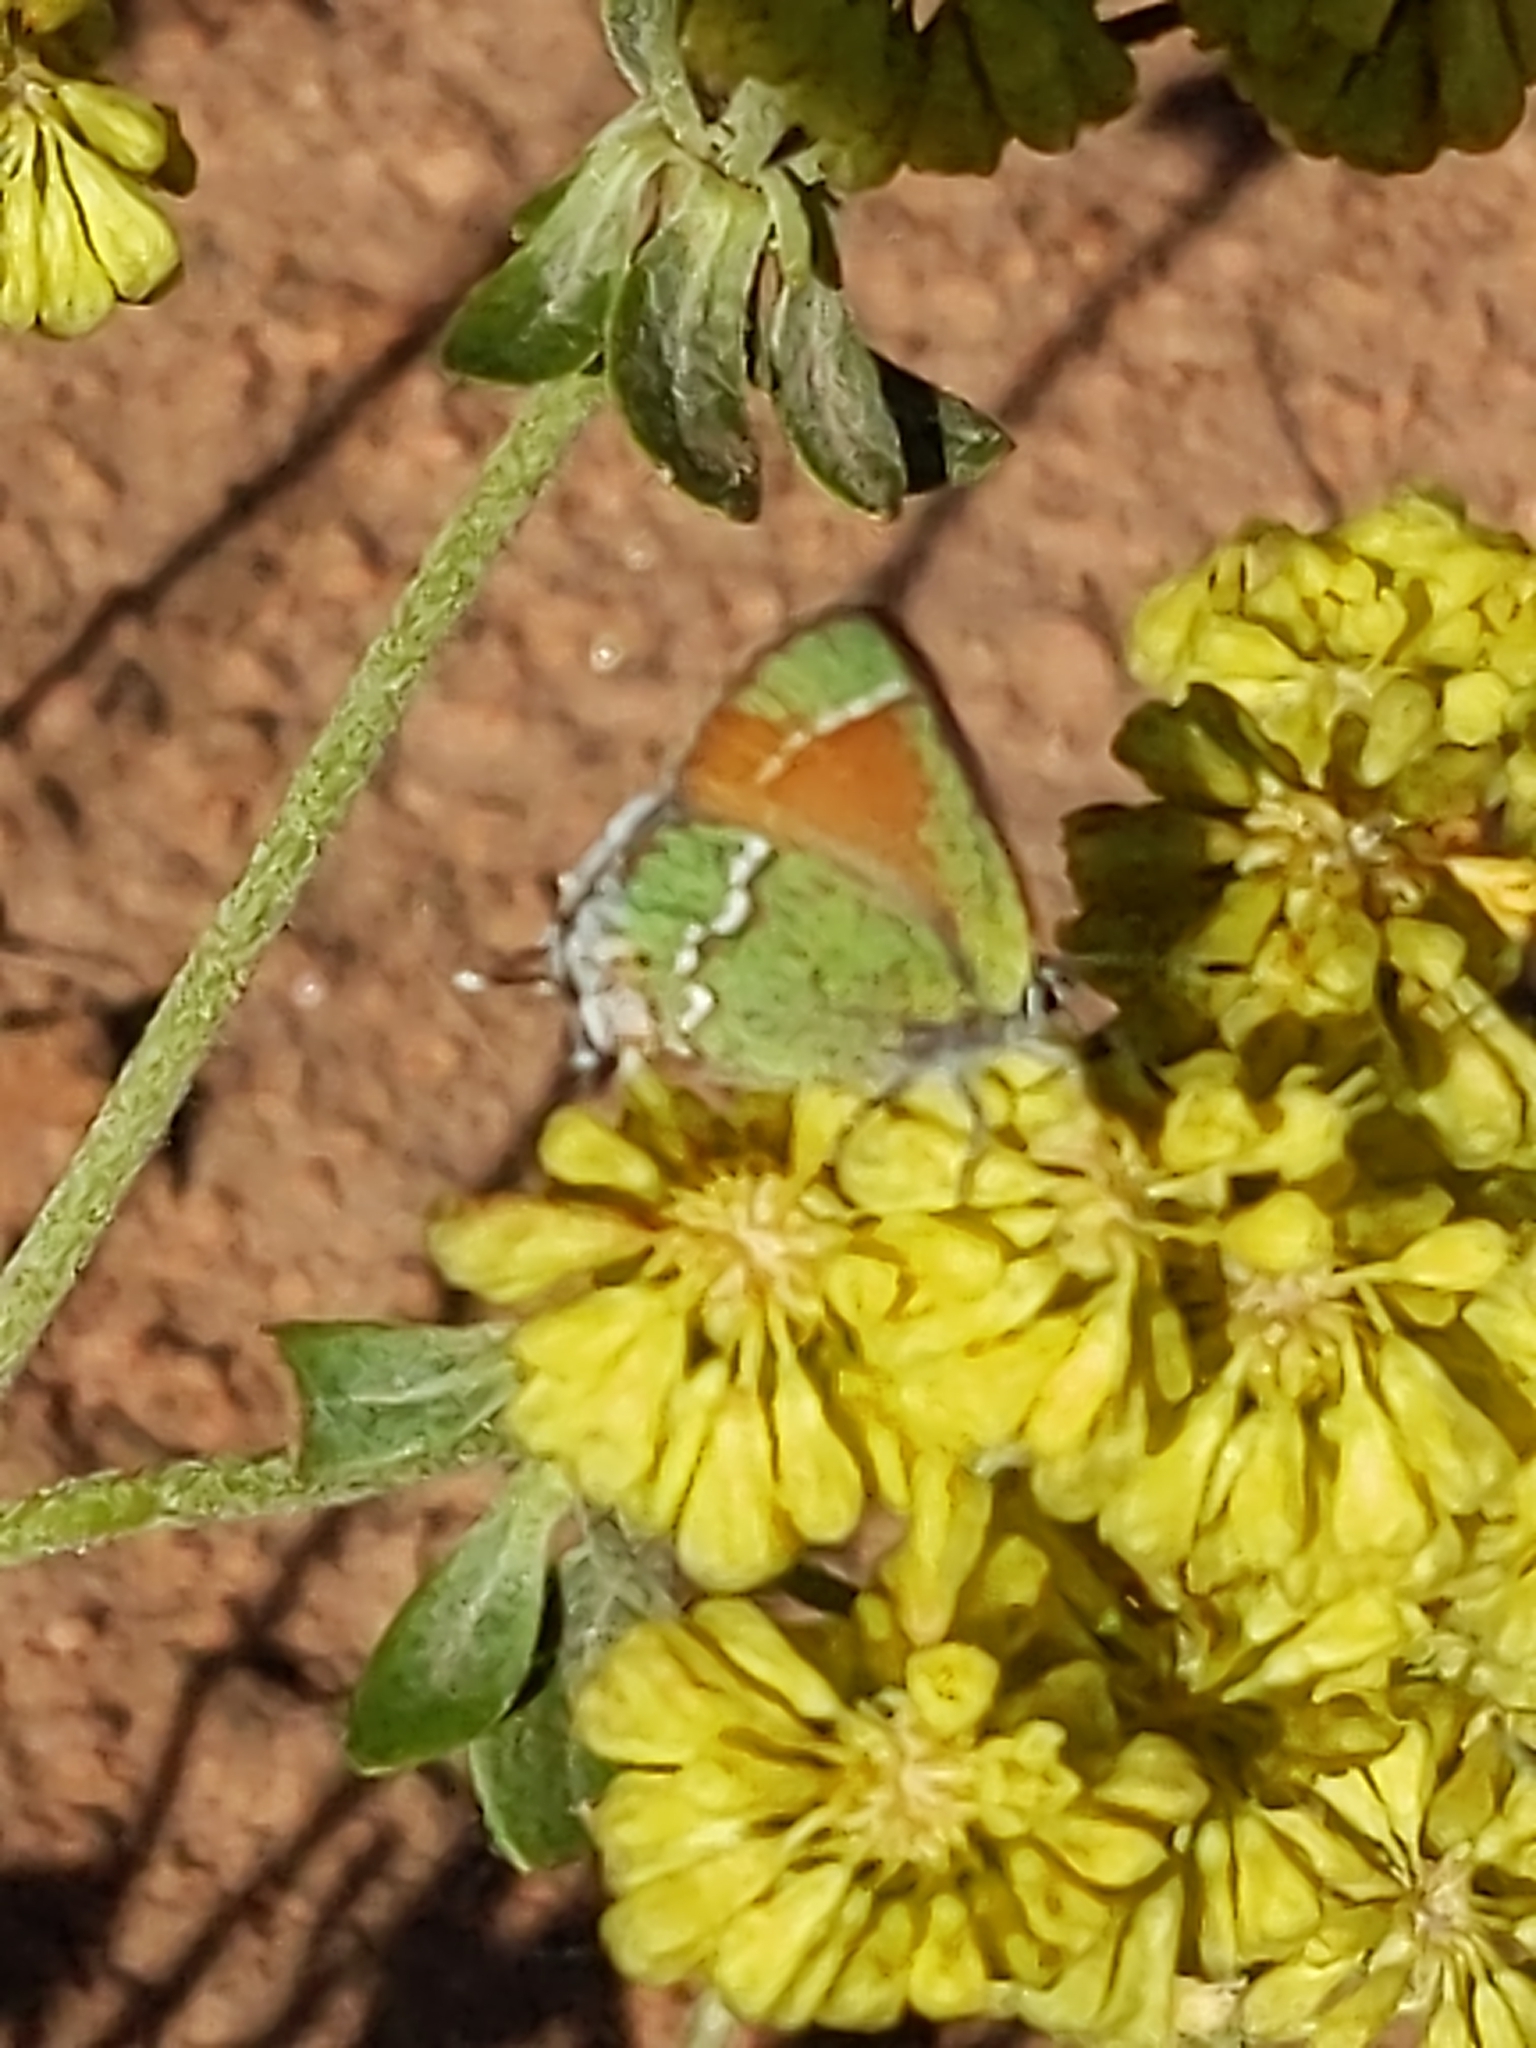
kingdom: Animalia
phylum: Arthropoda
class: Insecta
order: Lepidoptera
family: Lycaenidae
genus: Mitoura
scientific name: Mitoura gryneus
